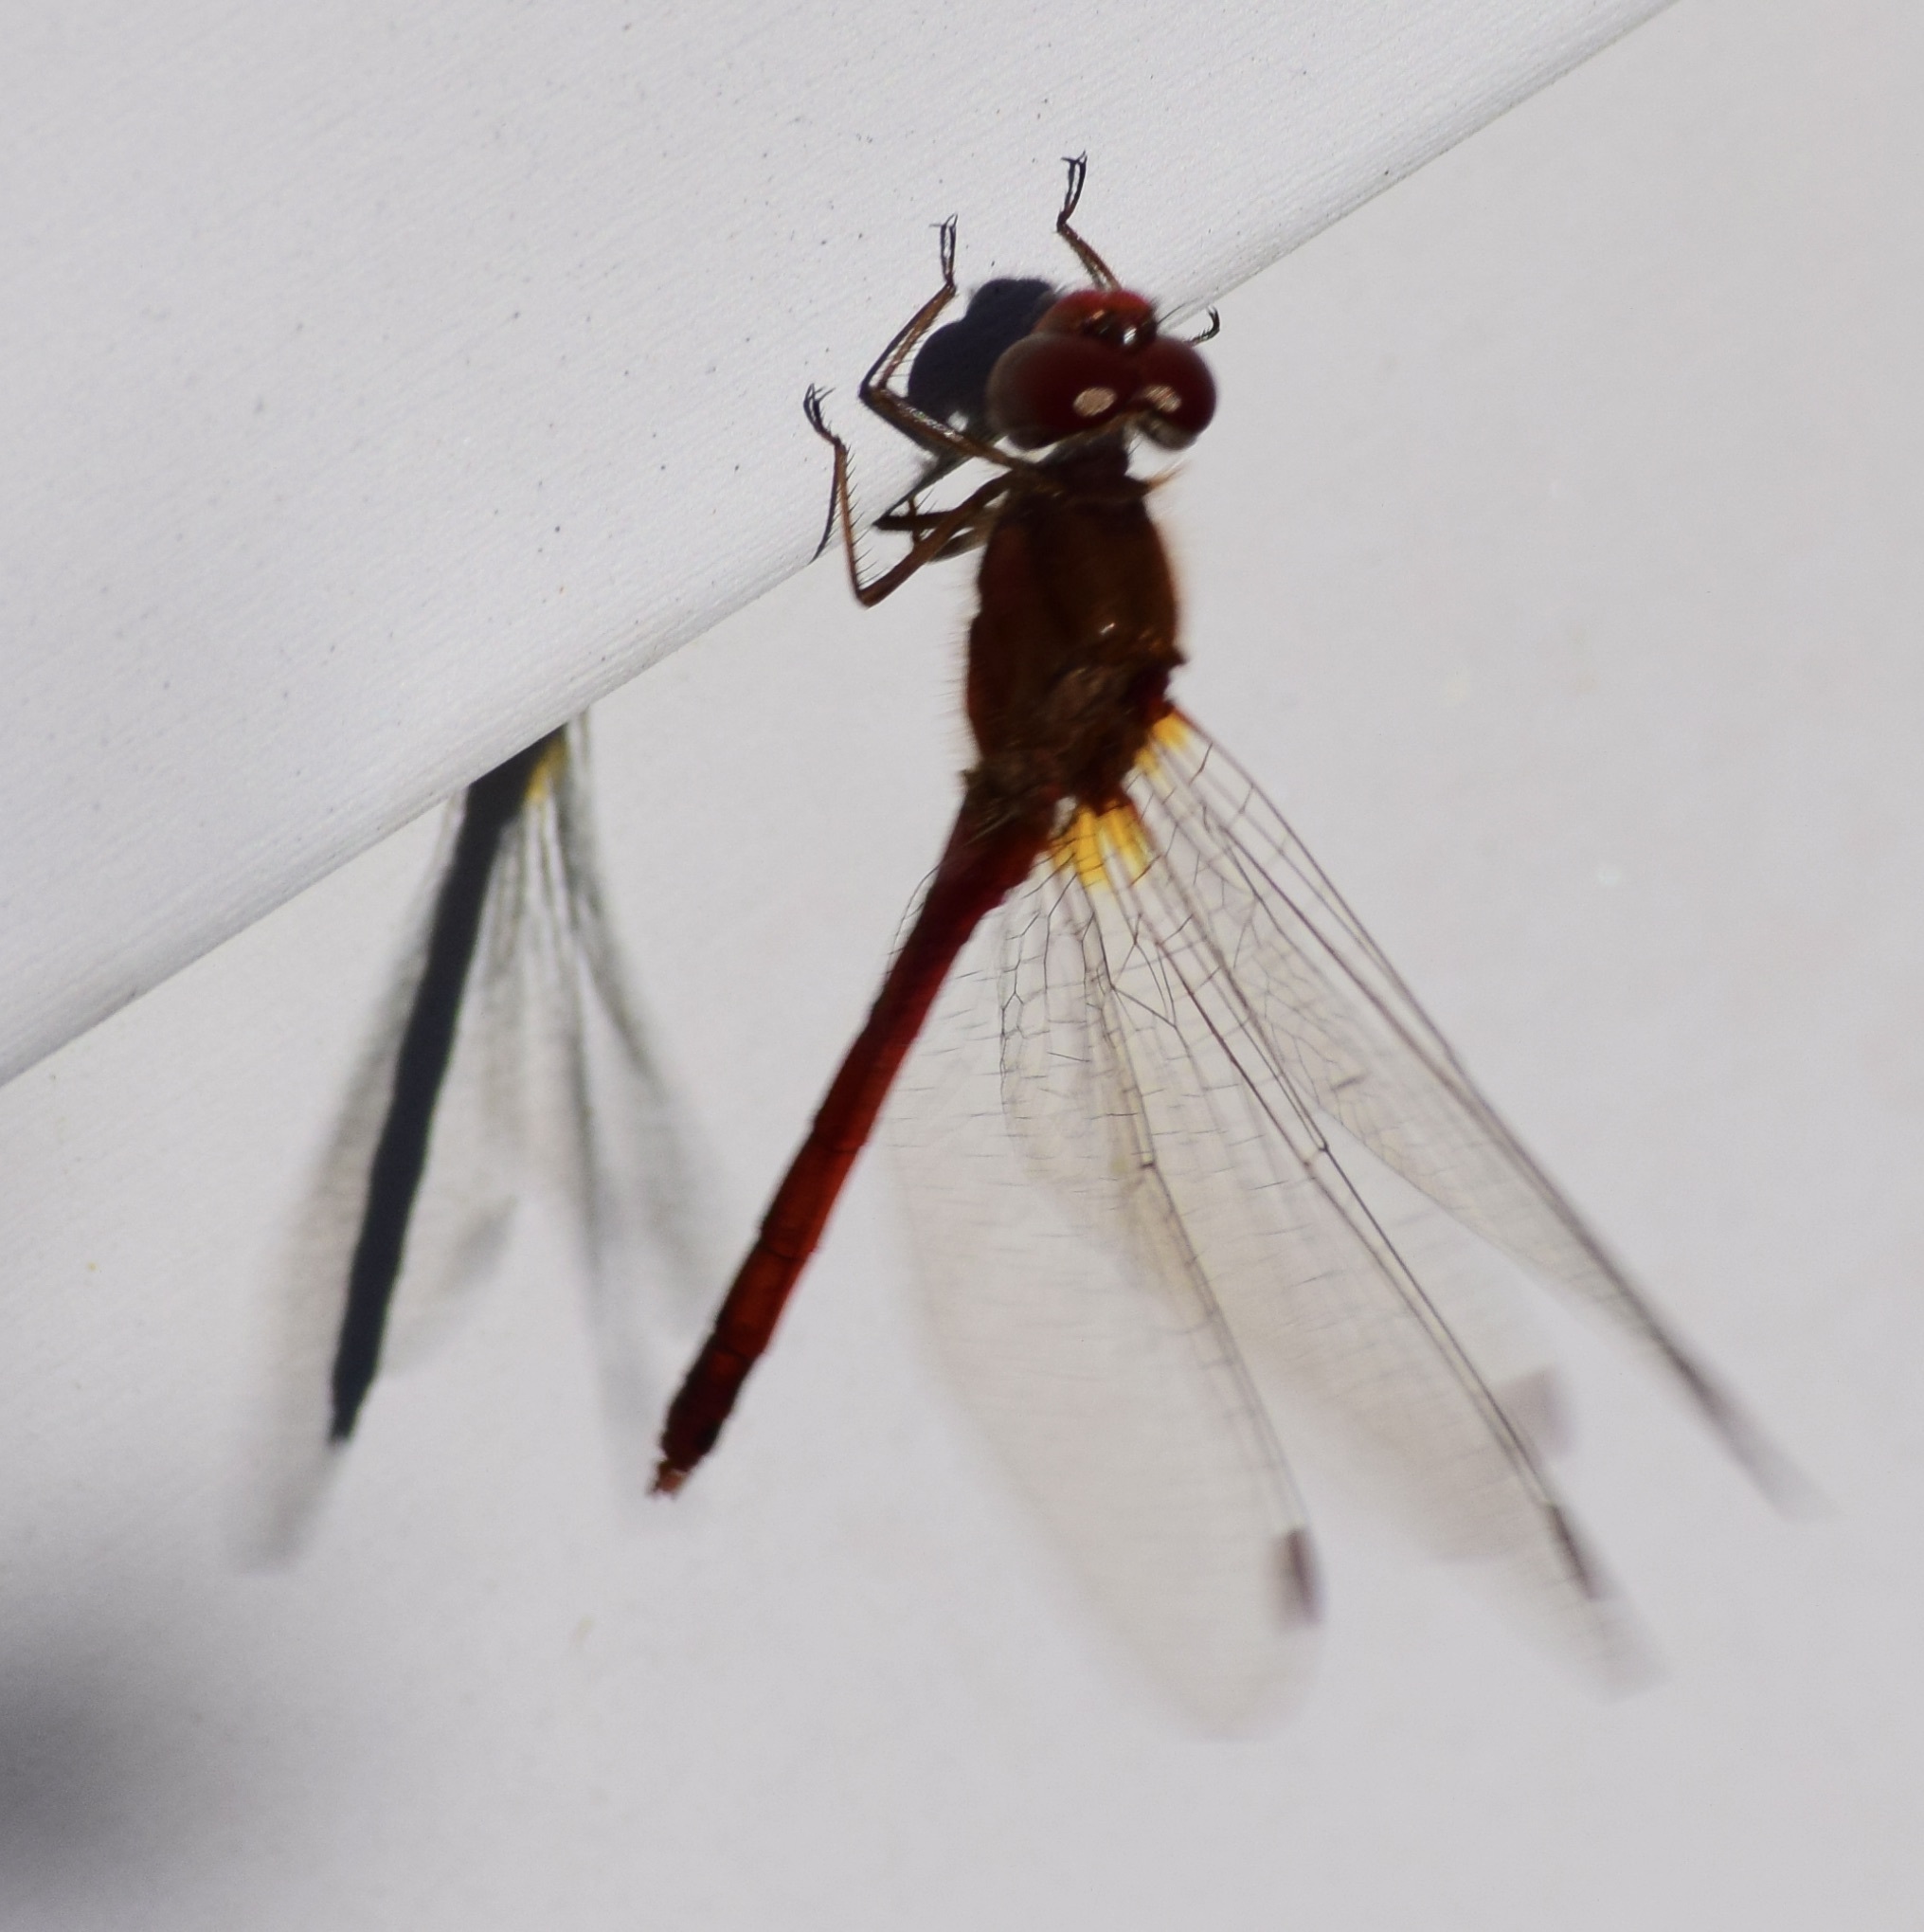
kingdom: Animalia
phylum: Arthropoda
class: Insecta
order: Odonata
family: Libellulidae
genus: Sympetrum
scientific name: Sympetrum vicinum
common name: Autumn meadowhawk
